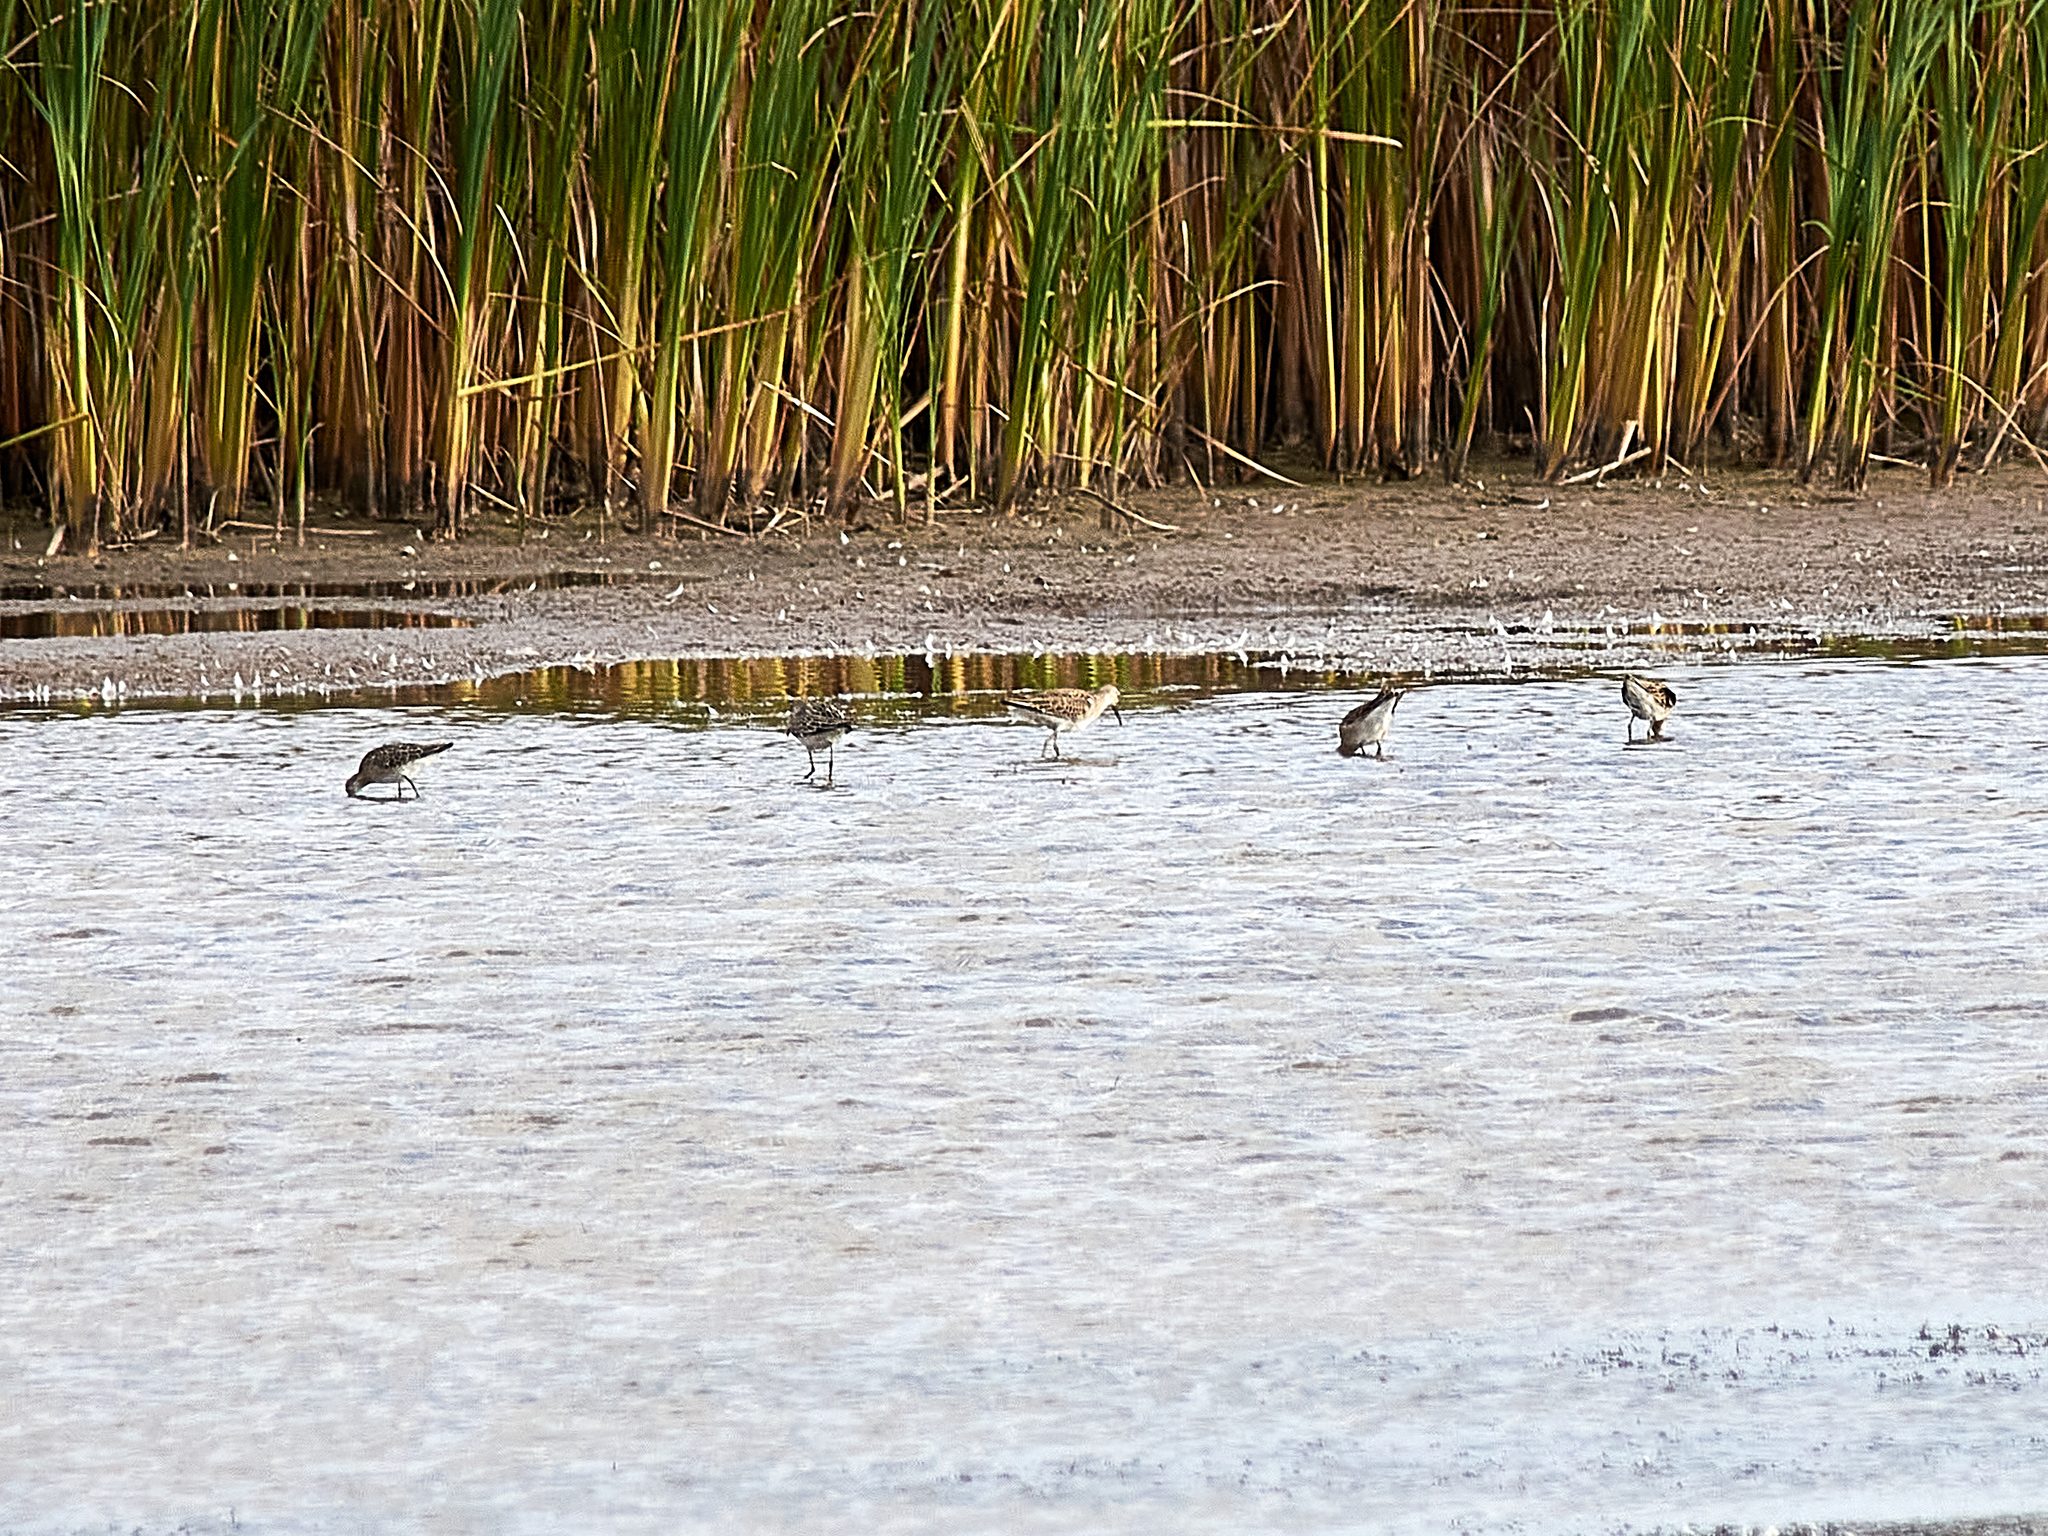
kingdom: Animalia
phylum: Chordata
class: Aves
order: Charadriiformes
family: Scolopacidae
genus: Calidris
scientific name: Calidris pugnax
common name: Ruff
